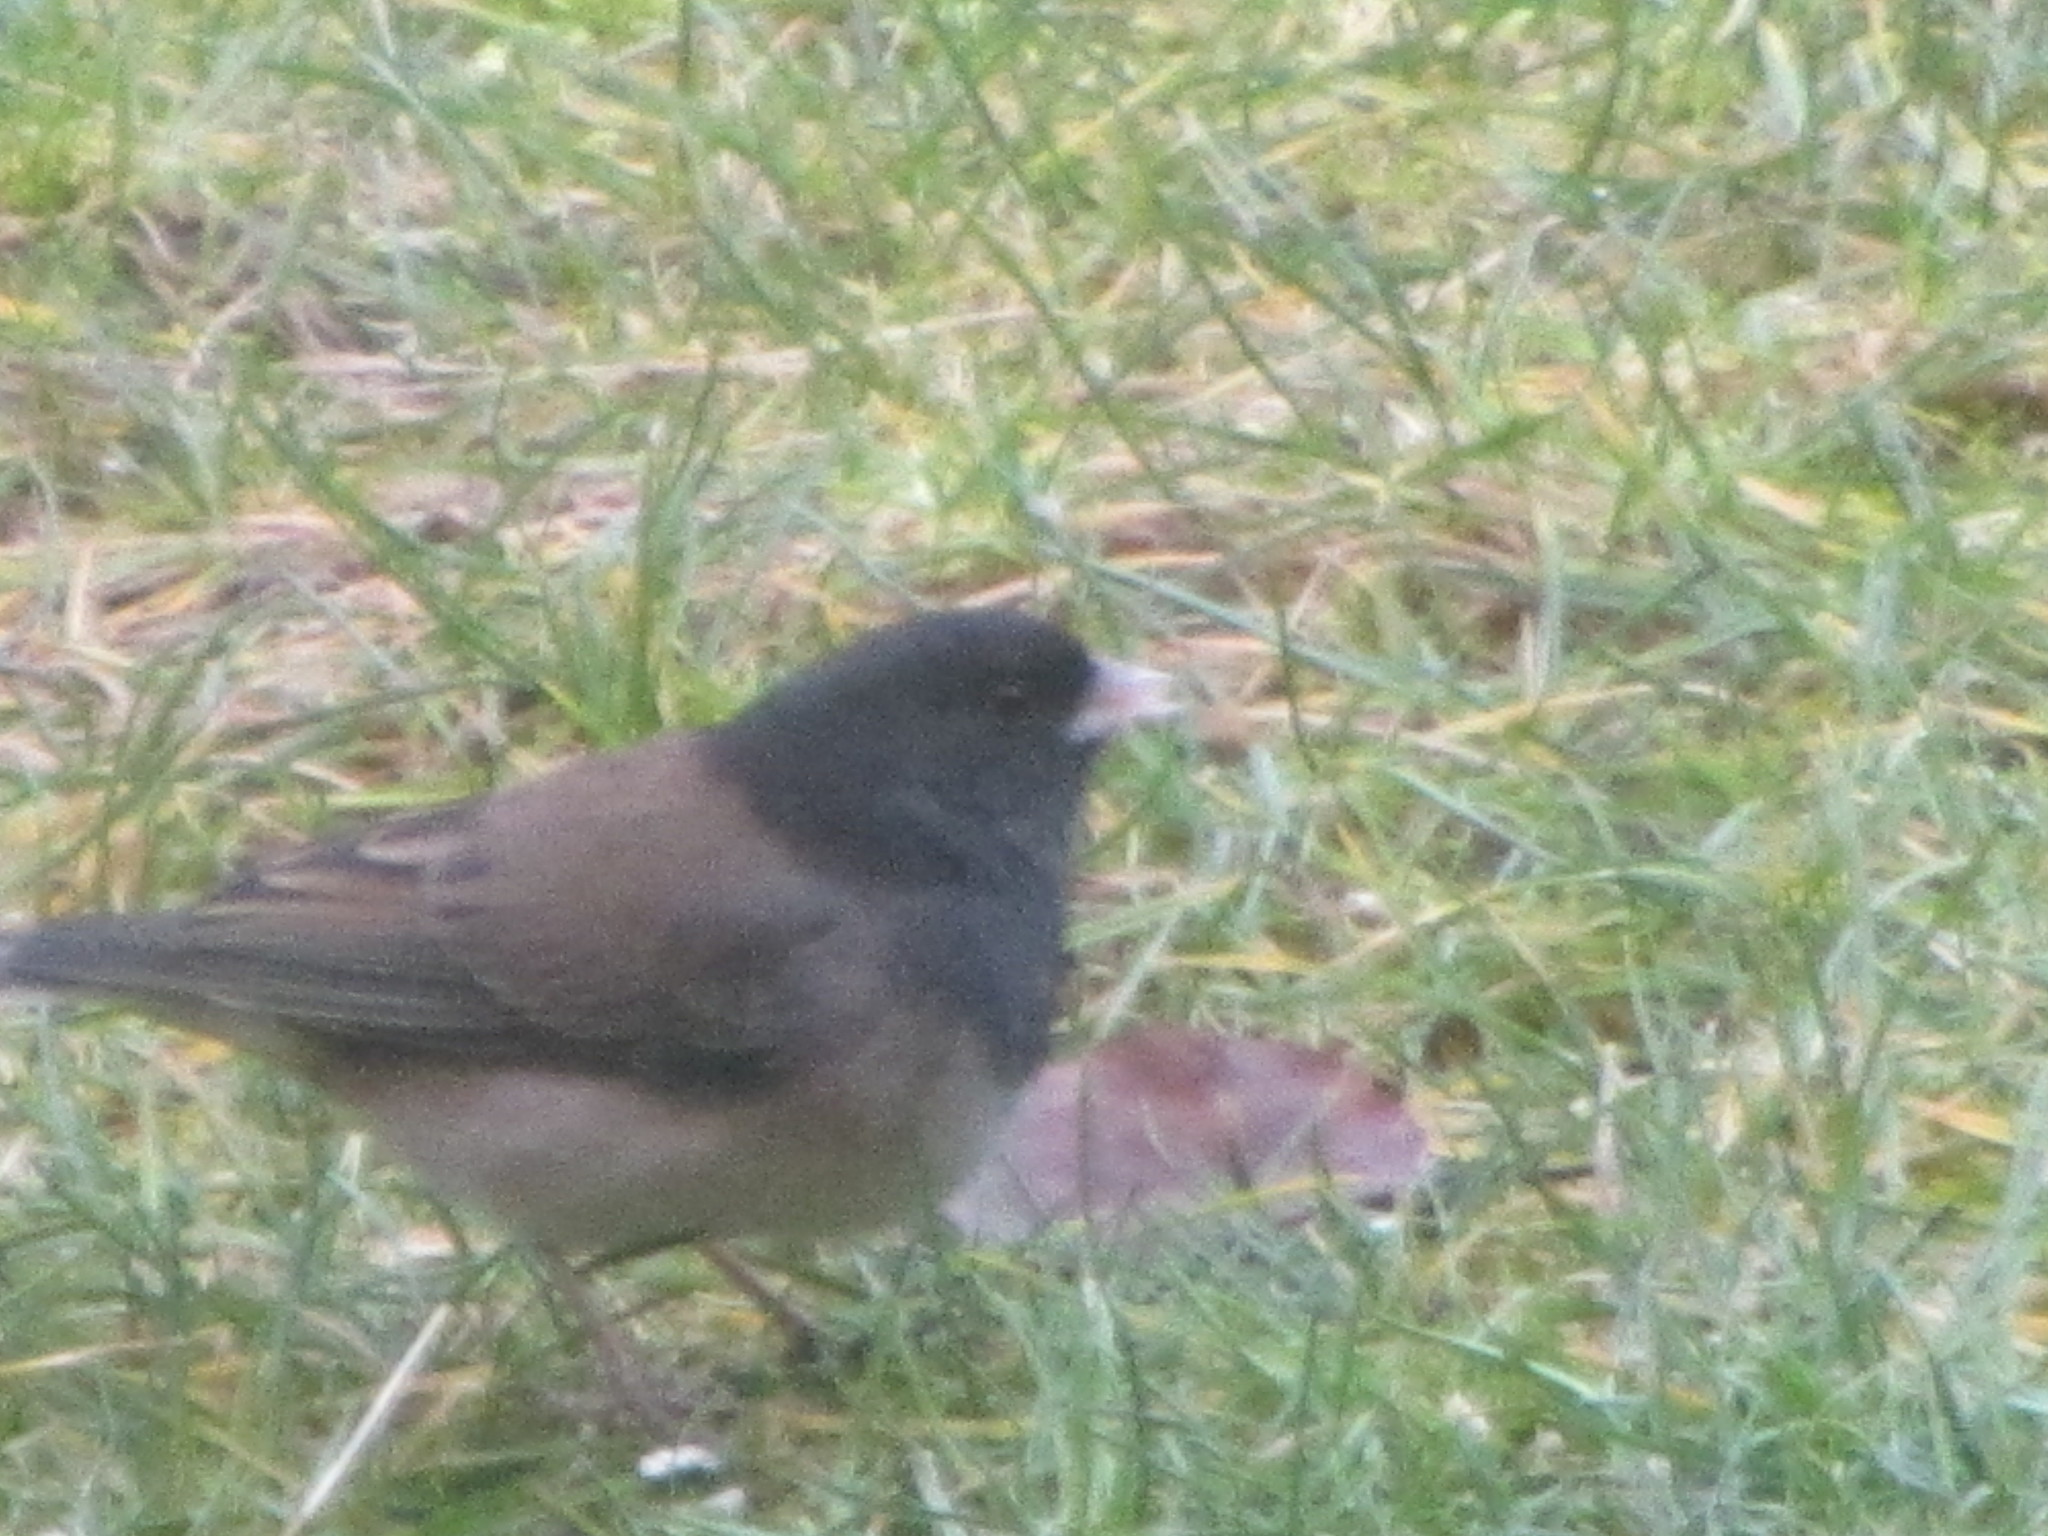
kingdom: Animalia
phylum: Chordata
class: Aves
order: Passeriformes
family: Passerellidae
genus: Junco
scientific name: Junco hyemalis
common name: Dark-eyed junco
